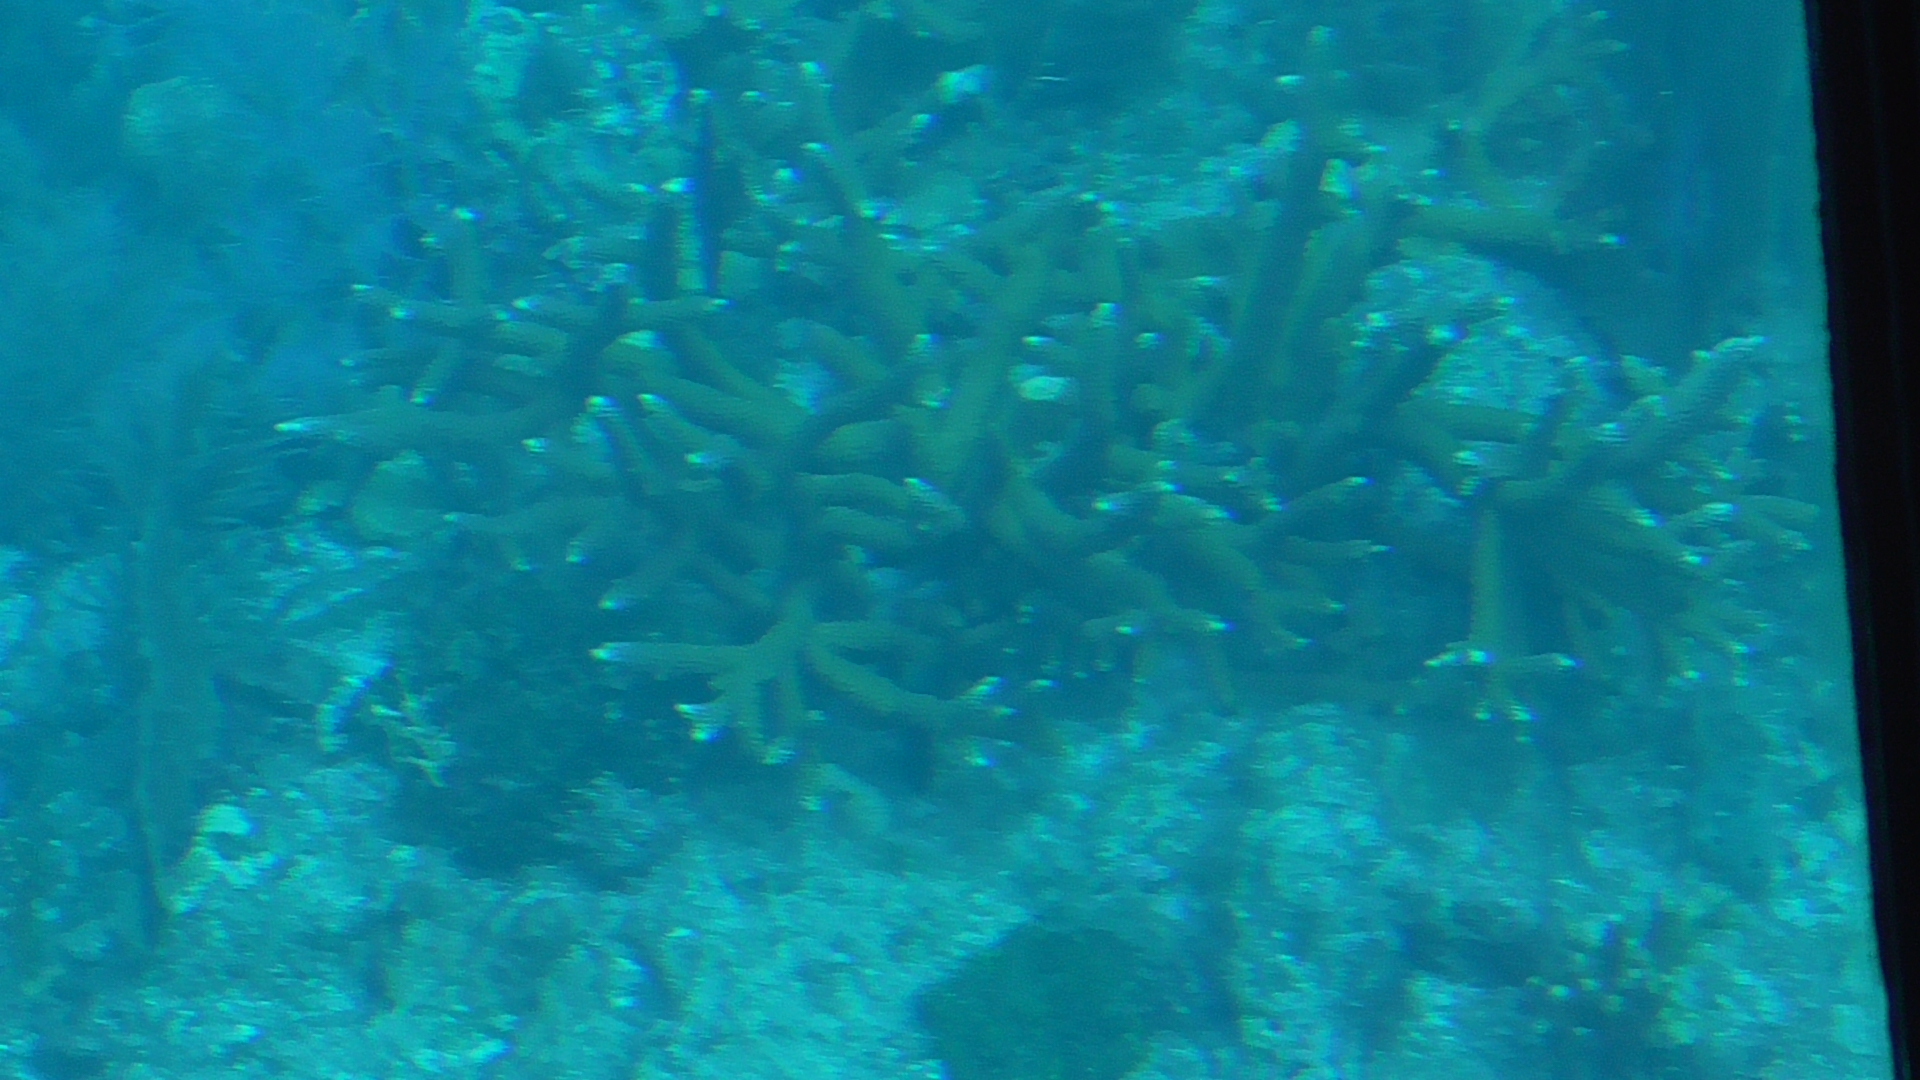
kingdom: Animalia
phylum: Cnidaria
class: Anthozoa
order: Scleractinia
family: Acroporidae
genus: Acropora
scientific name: Acropora cervicornis
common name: Staghorn coral
